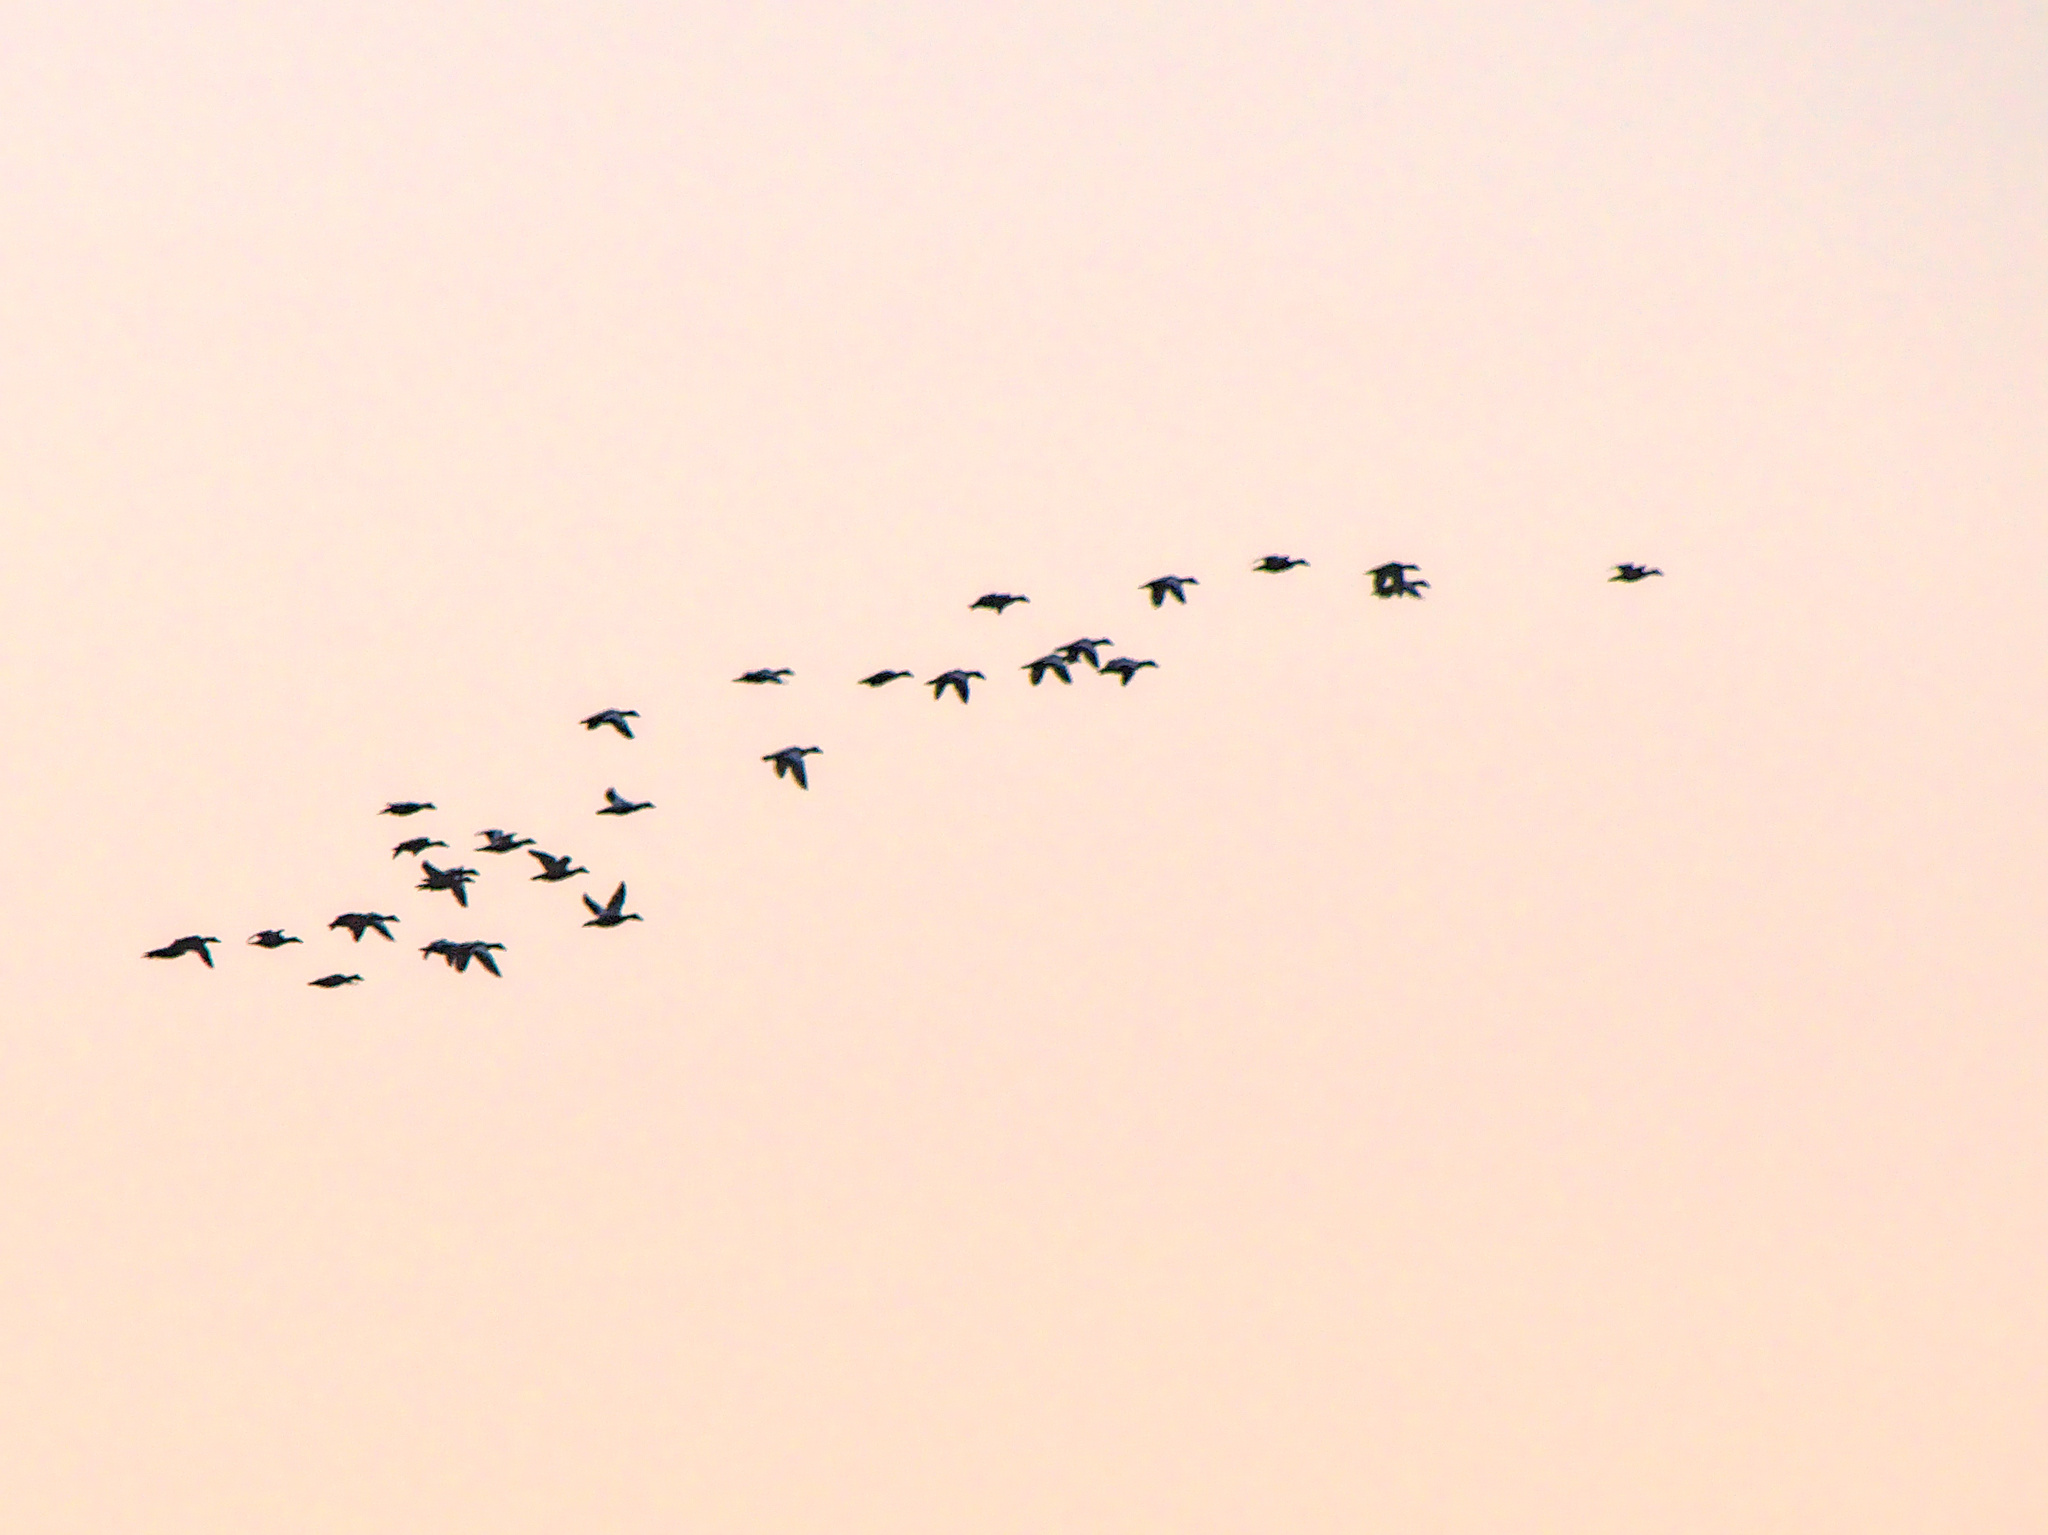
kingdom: Animalia
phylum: Chordata
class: Aves
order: Anseriformes
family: Anatidae
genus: Melanitta
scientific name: Melanitta deglandi
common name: White-winged scoter
